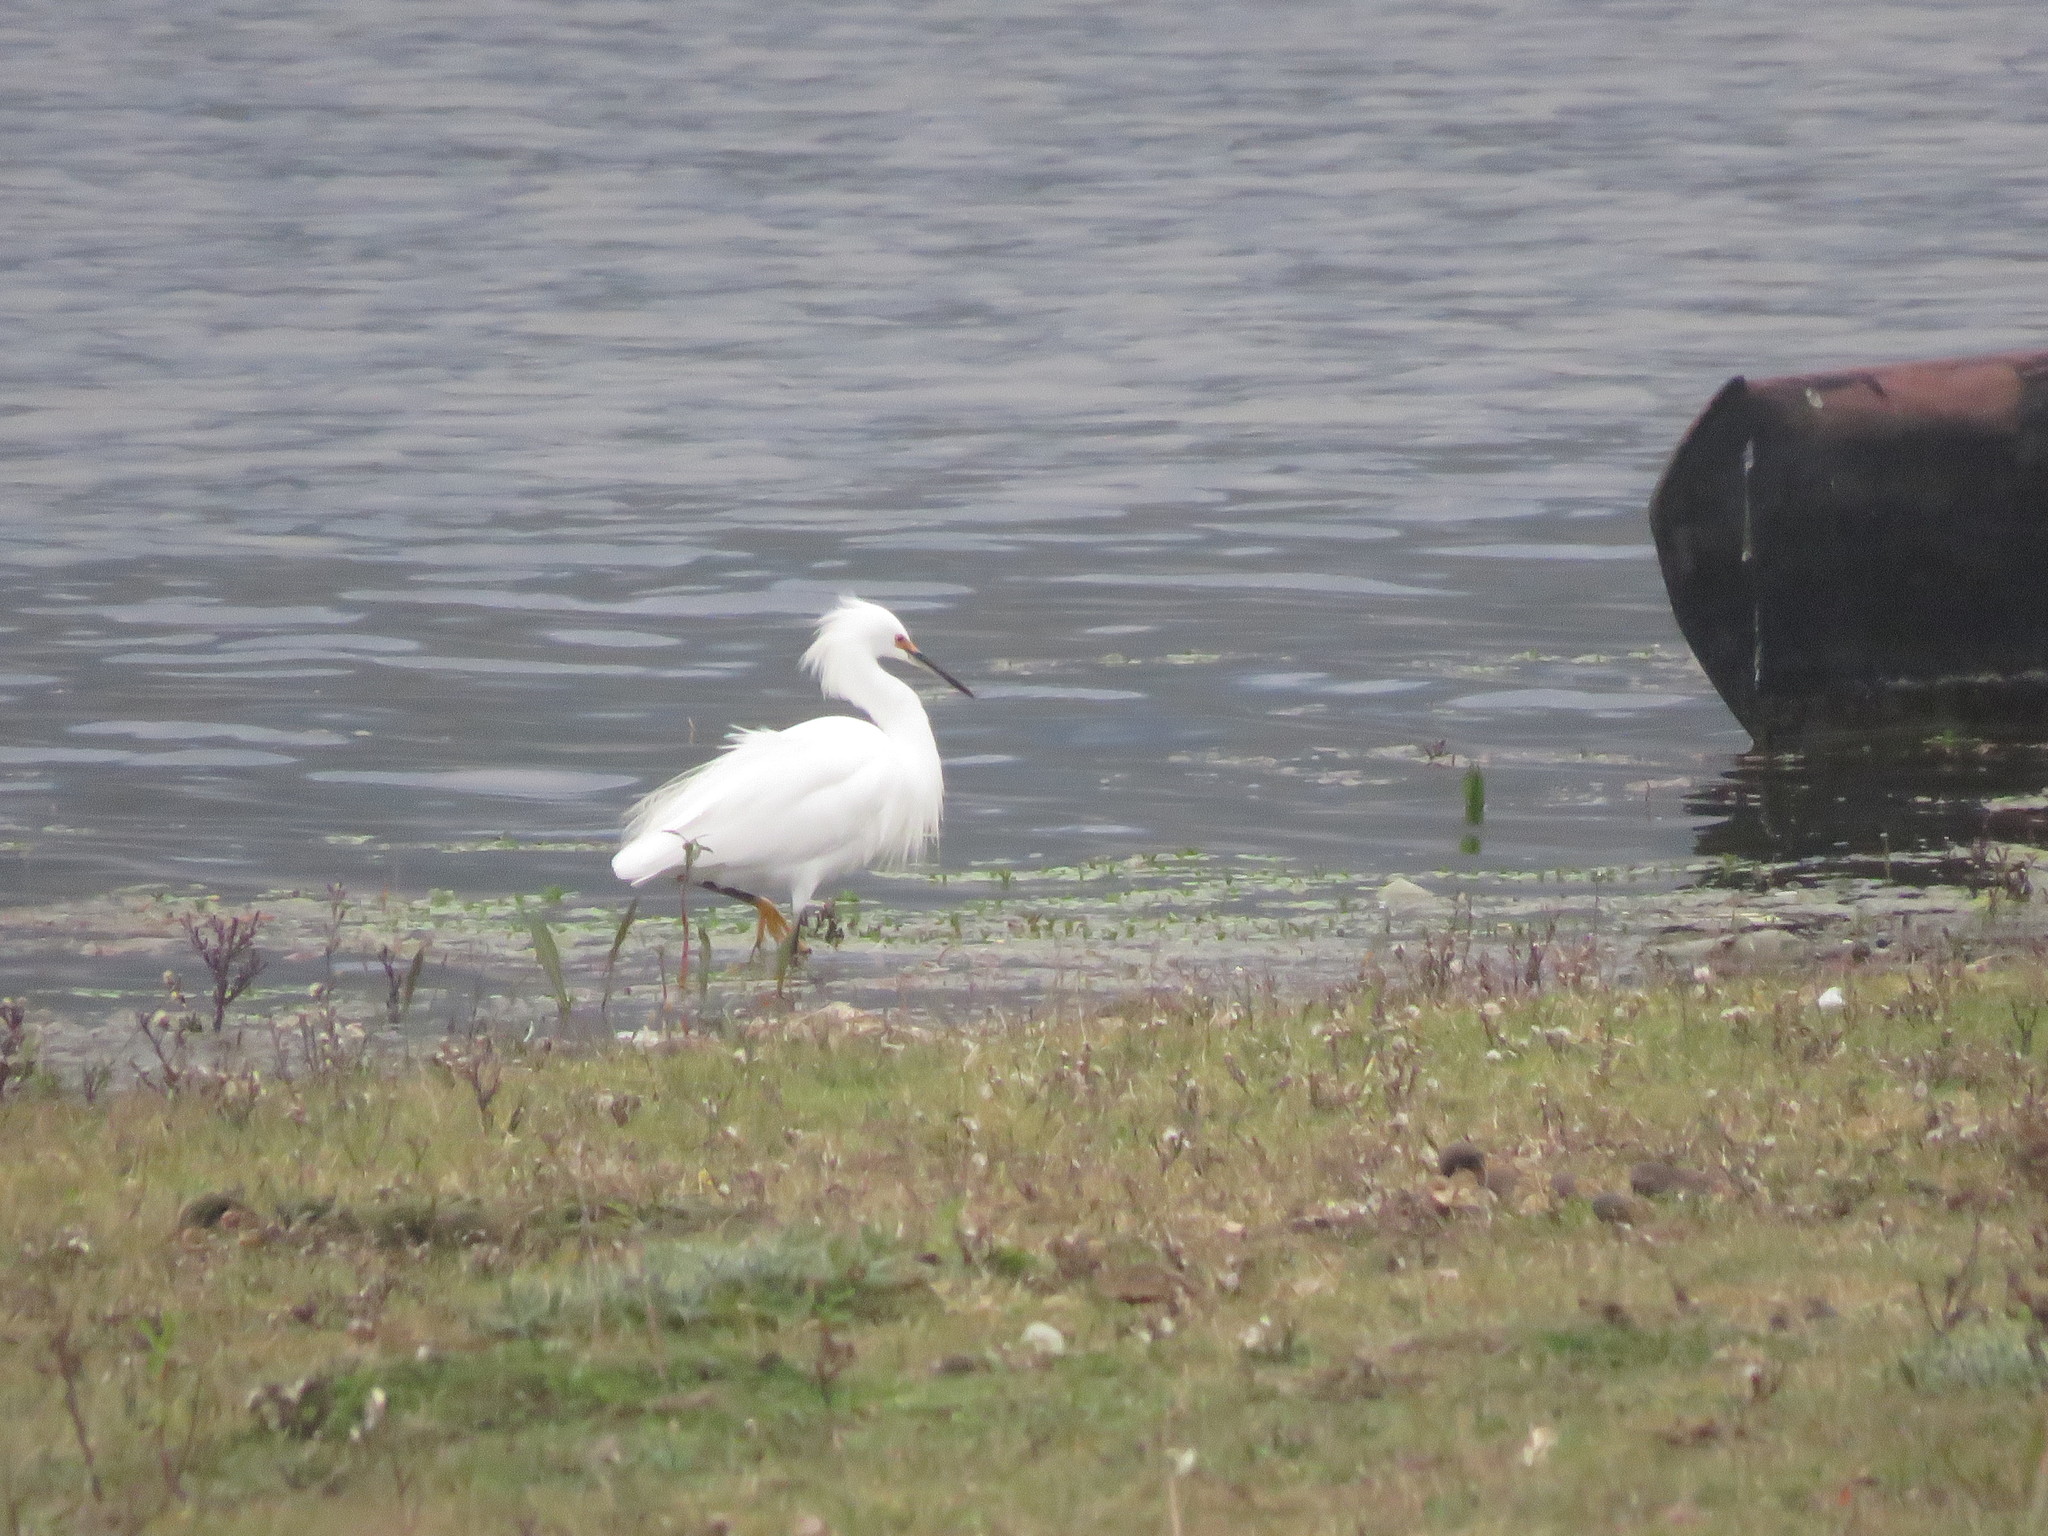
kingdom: Animalia
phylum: Chordata
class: Aves
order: Pelecaniformes
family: Ardeidae
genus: Egretta
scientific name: Egretta thula
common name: Snowy egret
